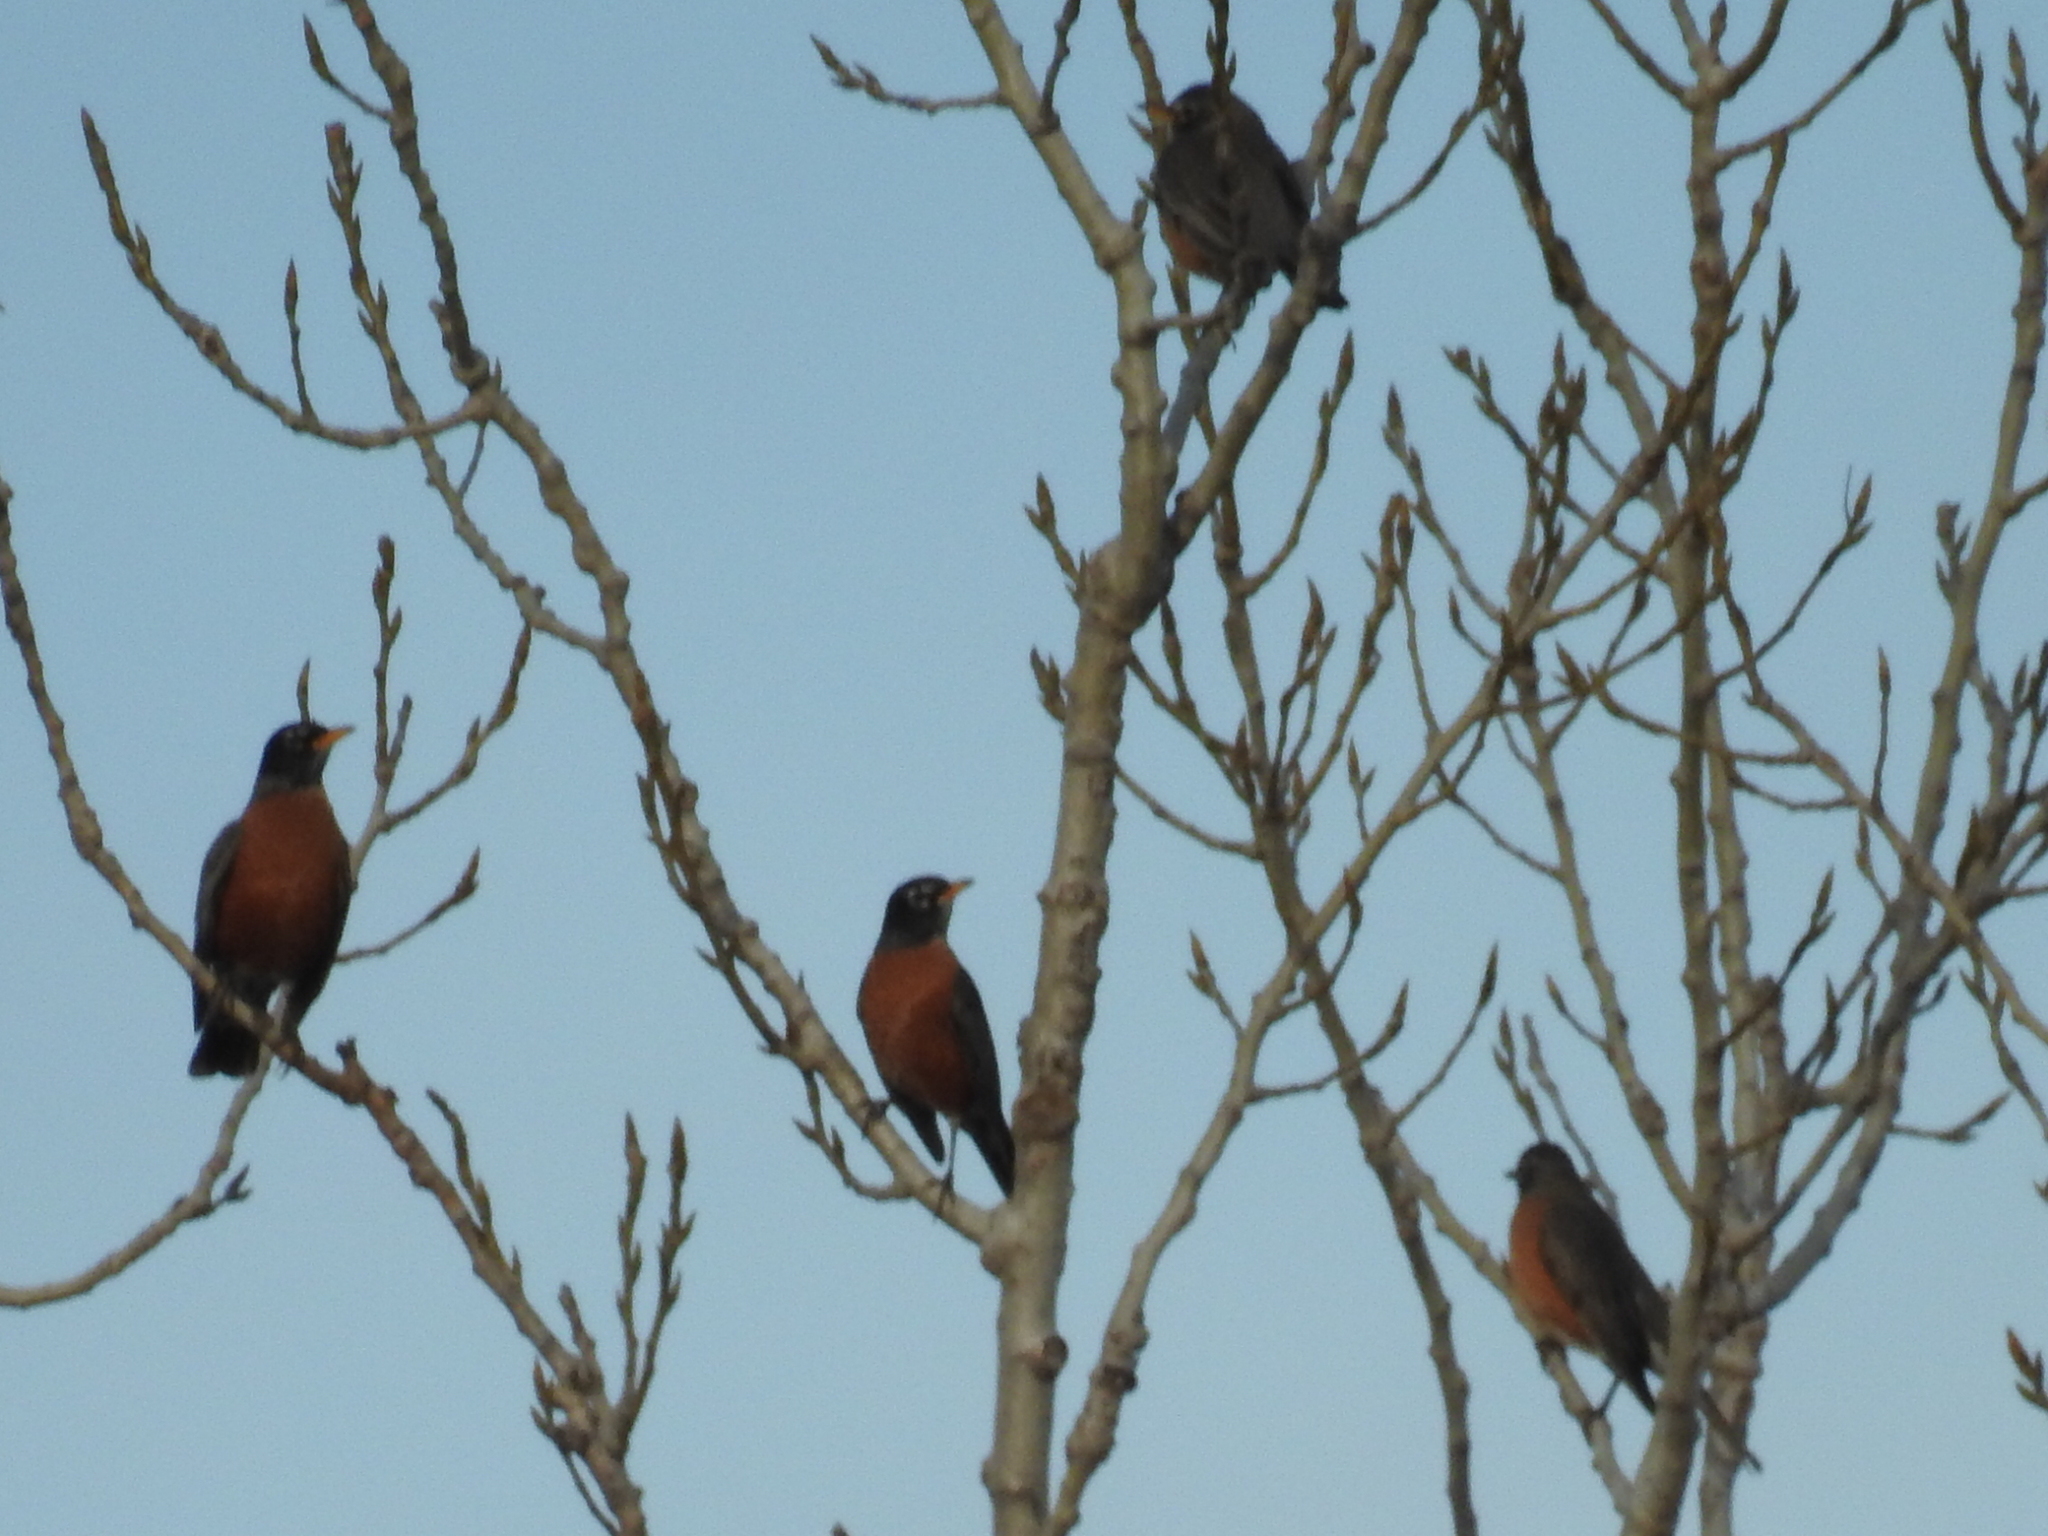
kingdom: Animalia
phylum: Chordata
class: Aves
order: Passeriformes
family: Turdidae
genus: Turdus
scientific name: Turdus migratorius
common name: American robin
